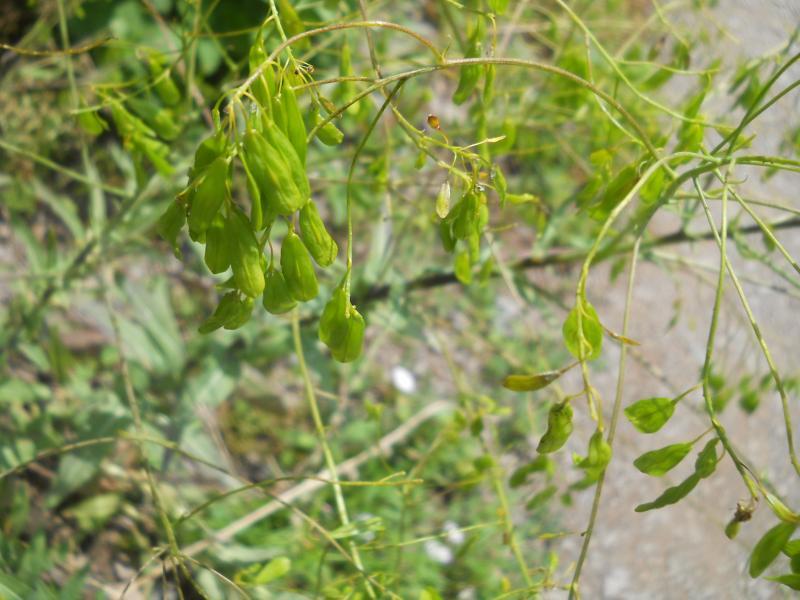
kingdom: Plantae
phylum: Tracheophyta
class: Magnoliopsida
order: Brassicales
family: Brassicaceae
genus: Isatis
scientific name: Isatis tinctoria
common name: Woad
